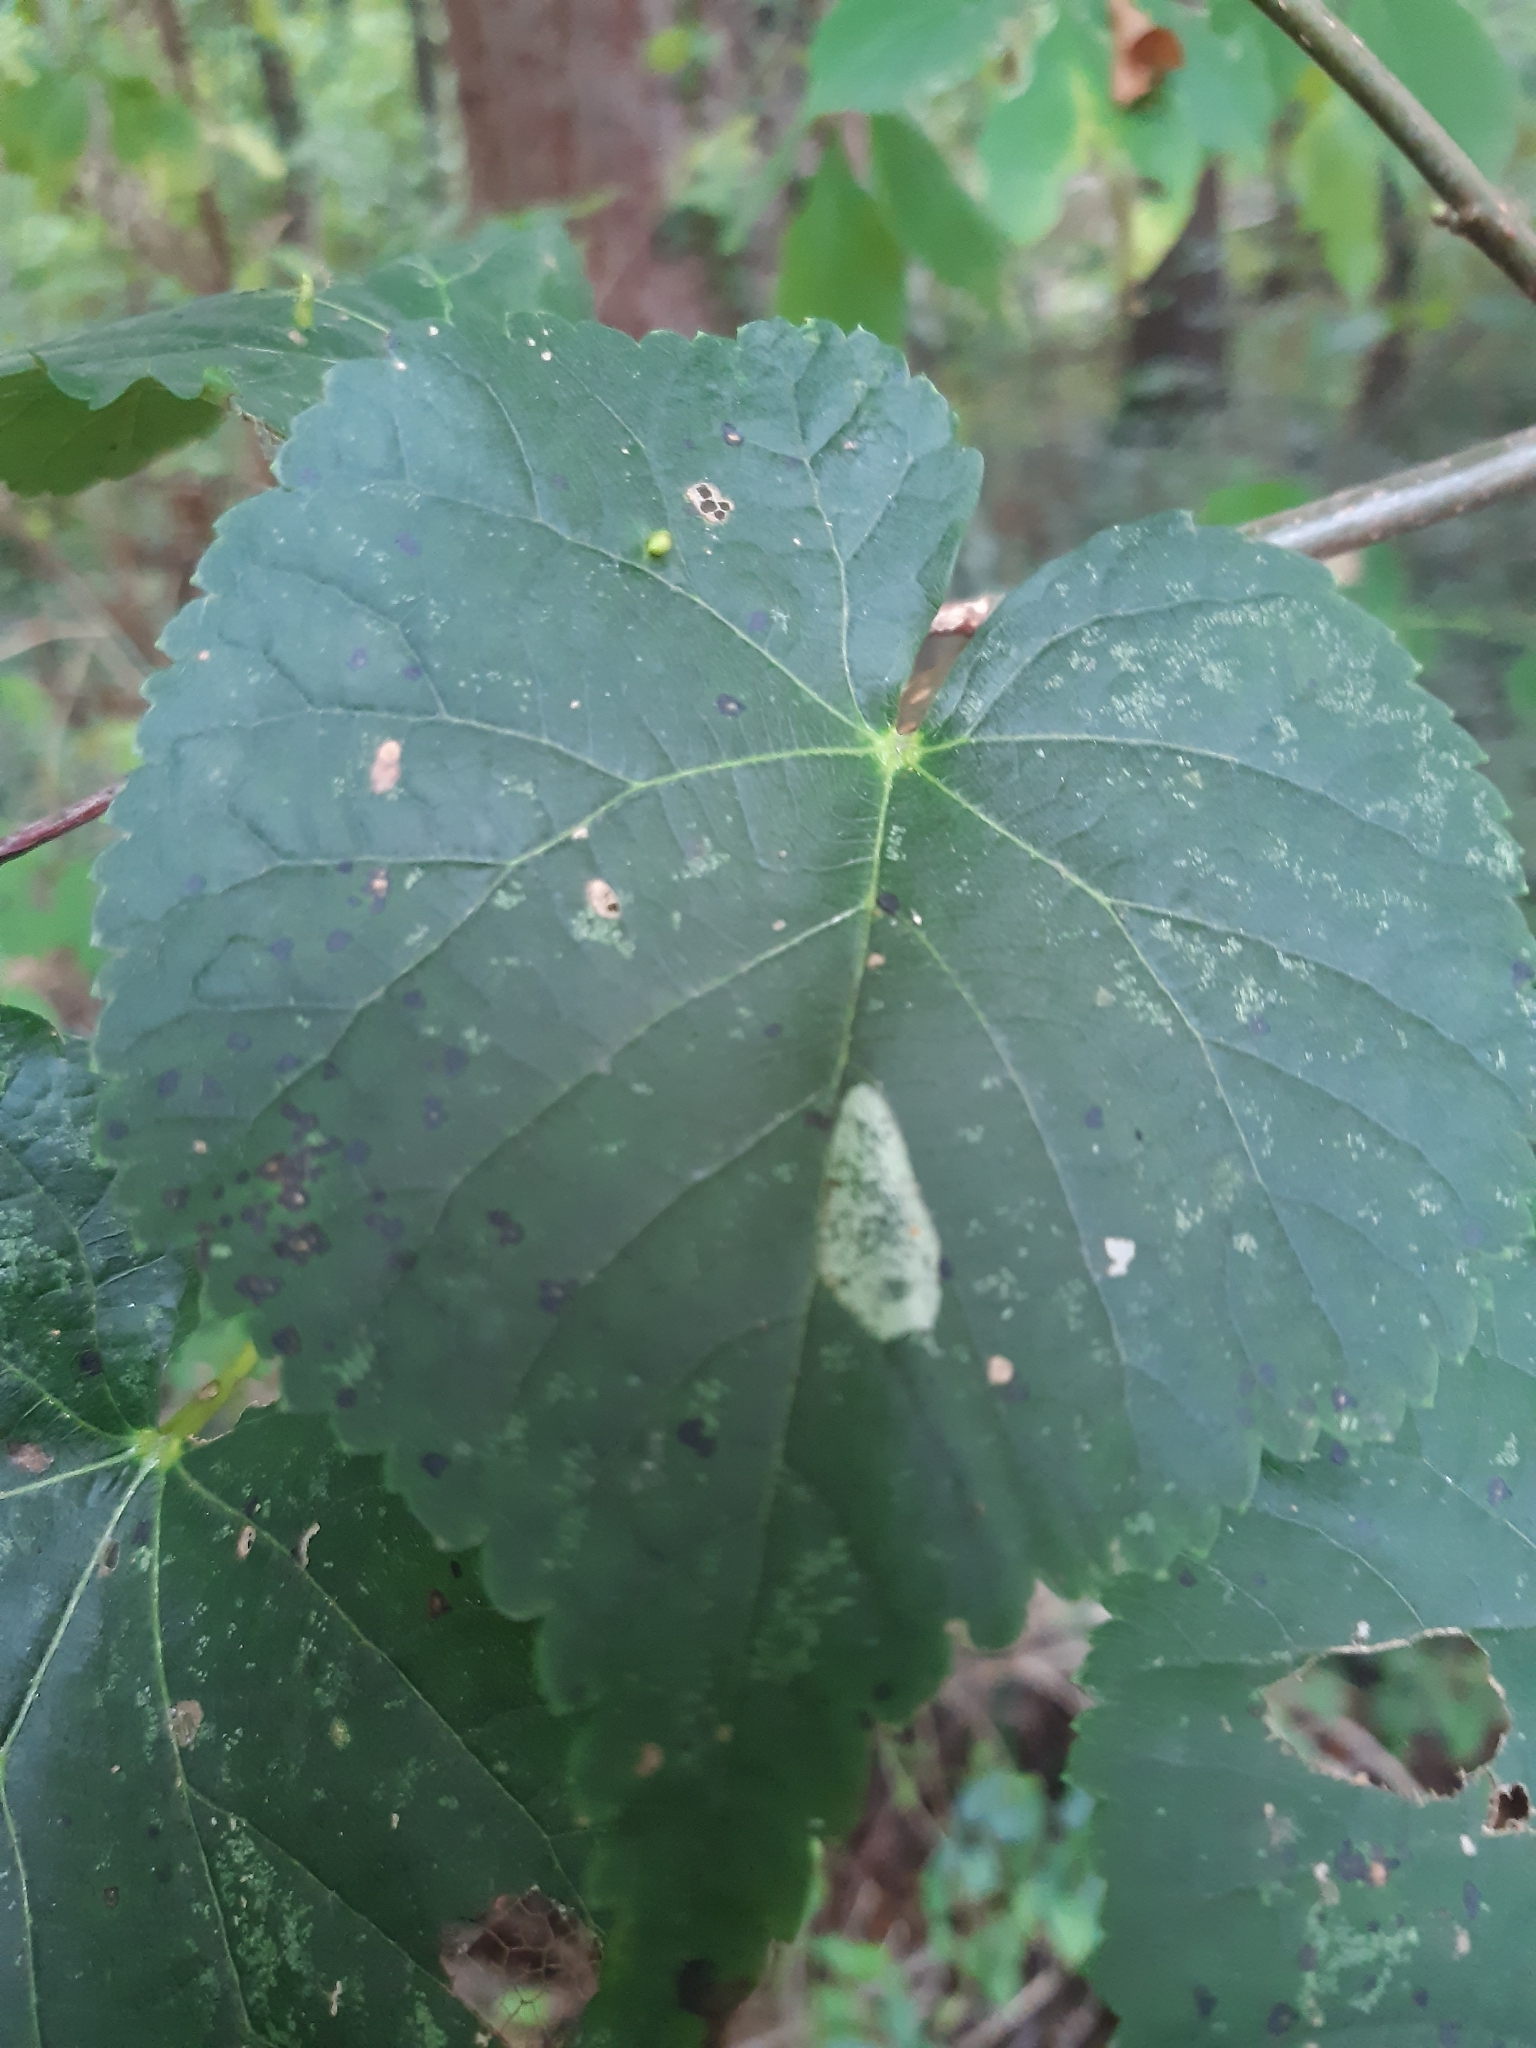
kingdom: Animalia
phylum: Arthropoda
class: Insecta
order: Lepidoptera
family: Gracillariidae
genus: Phyllonorycter
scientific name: Phyllonorycter issikii
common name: Linden midget
